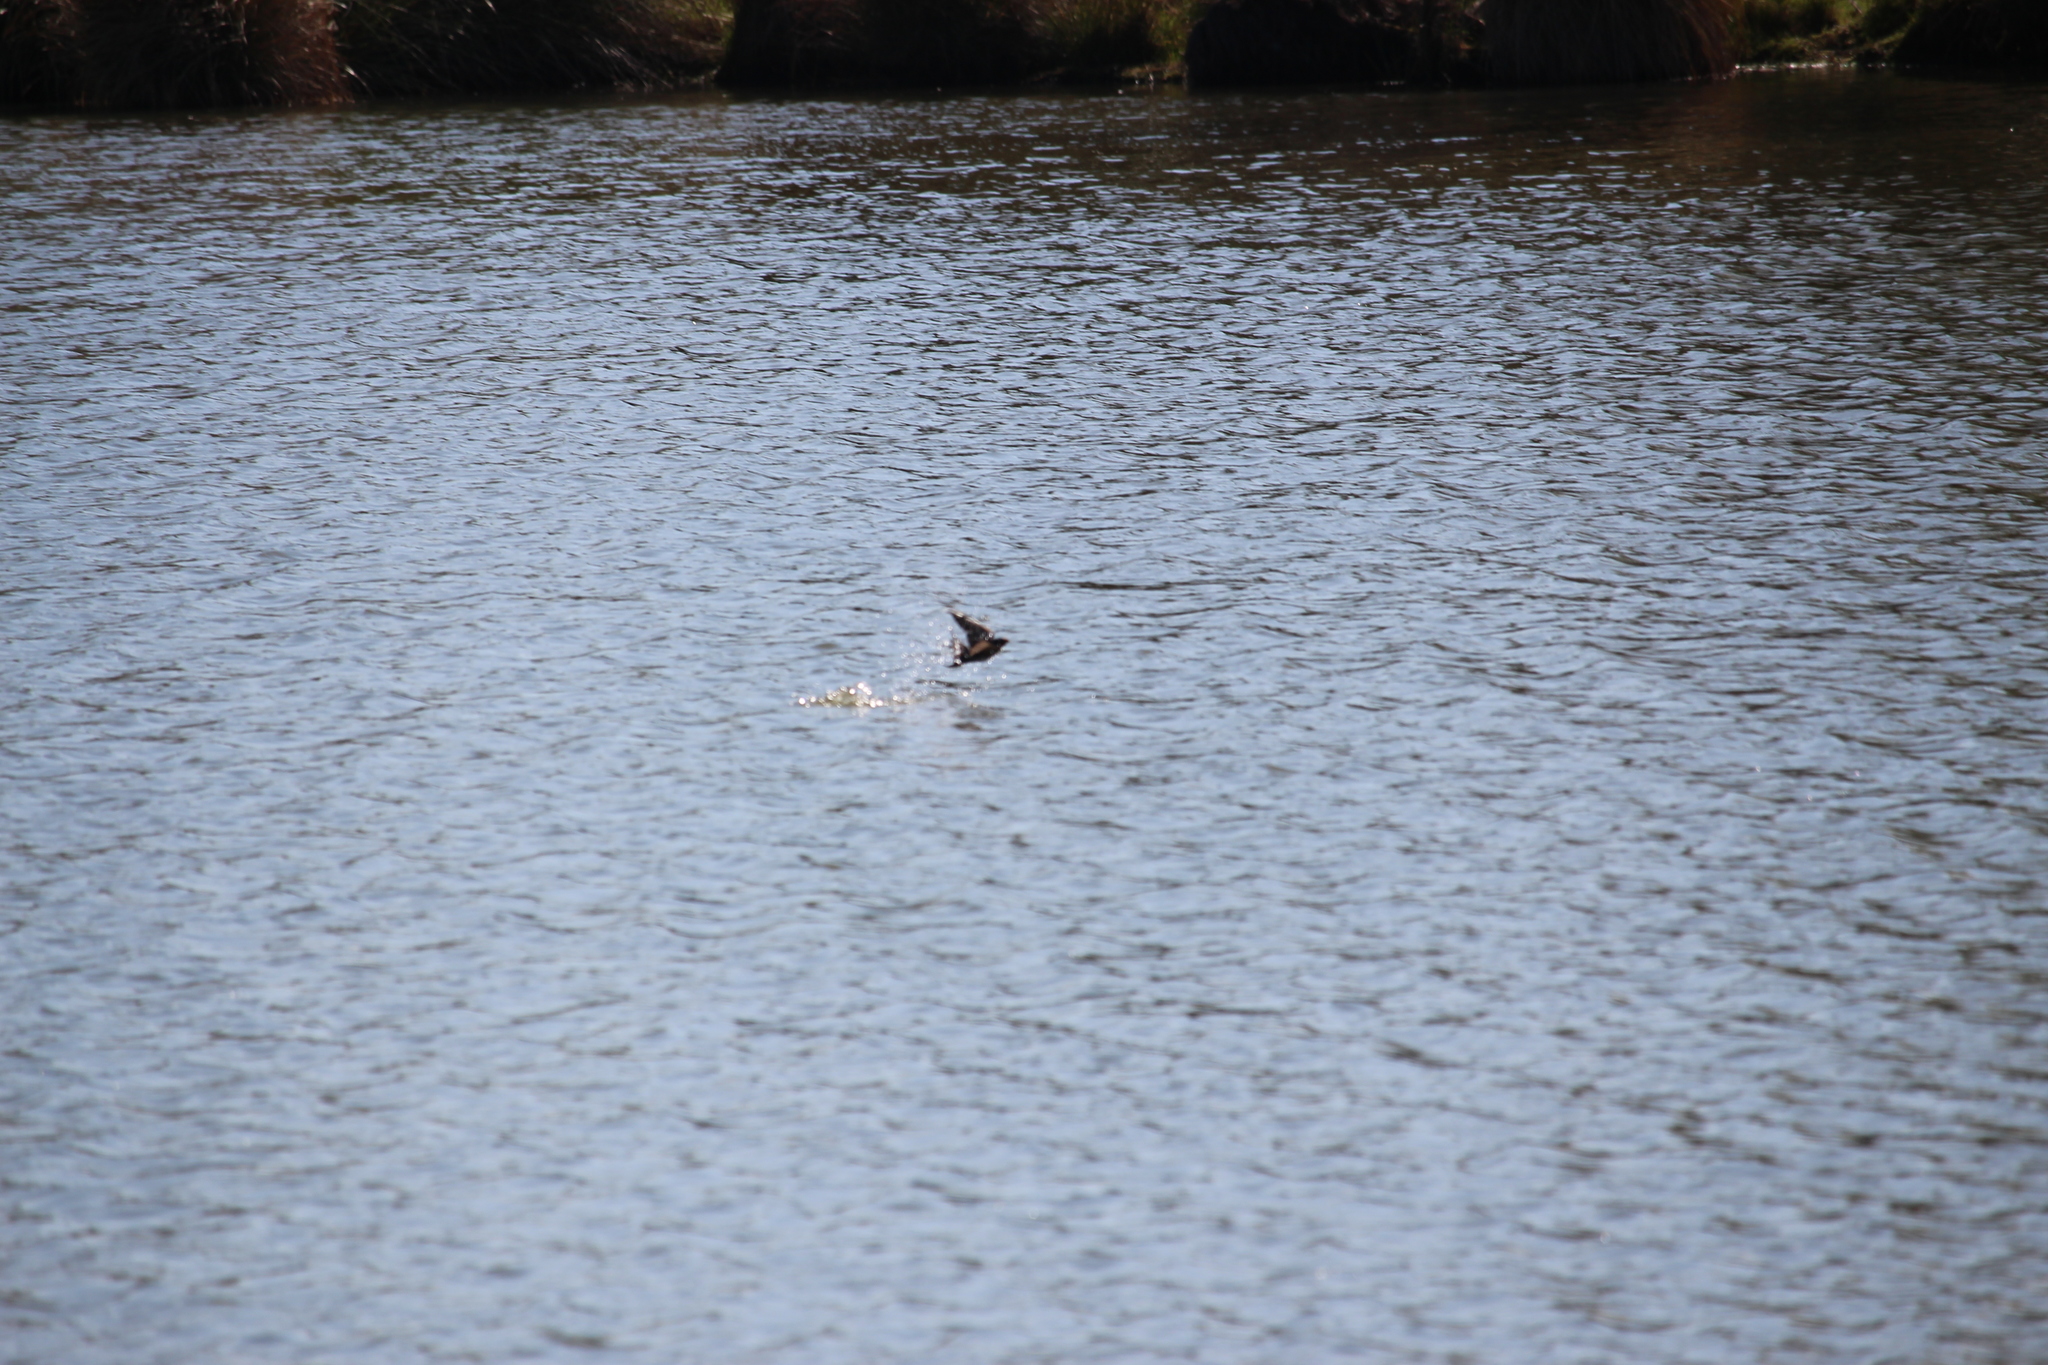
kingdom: Animalia
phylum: Chordata
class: Aves
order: Passeriformes
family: Hirundinidae
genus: Hirundo
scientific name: Hirundo neoxena
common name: Welcome swallow
